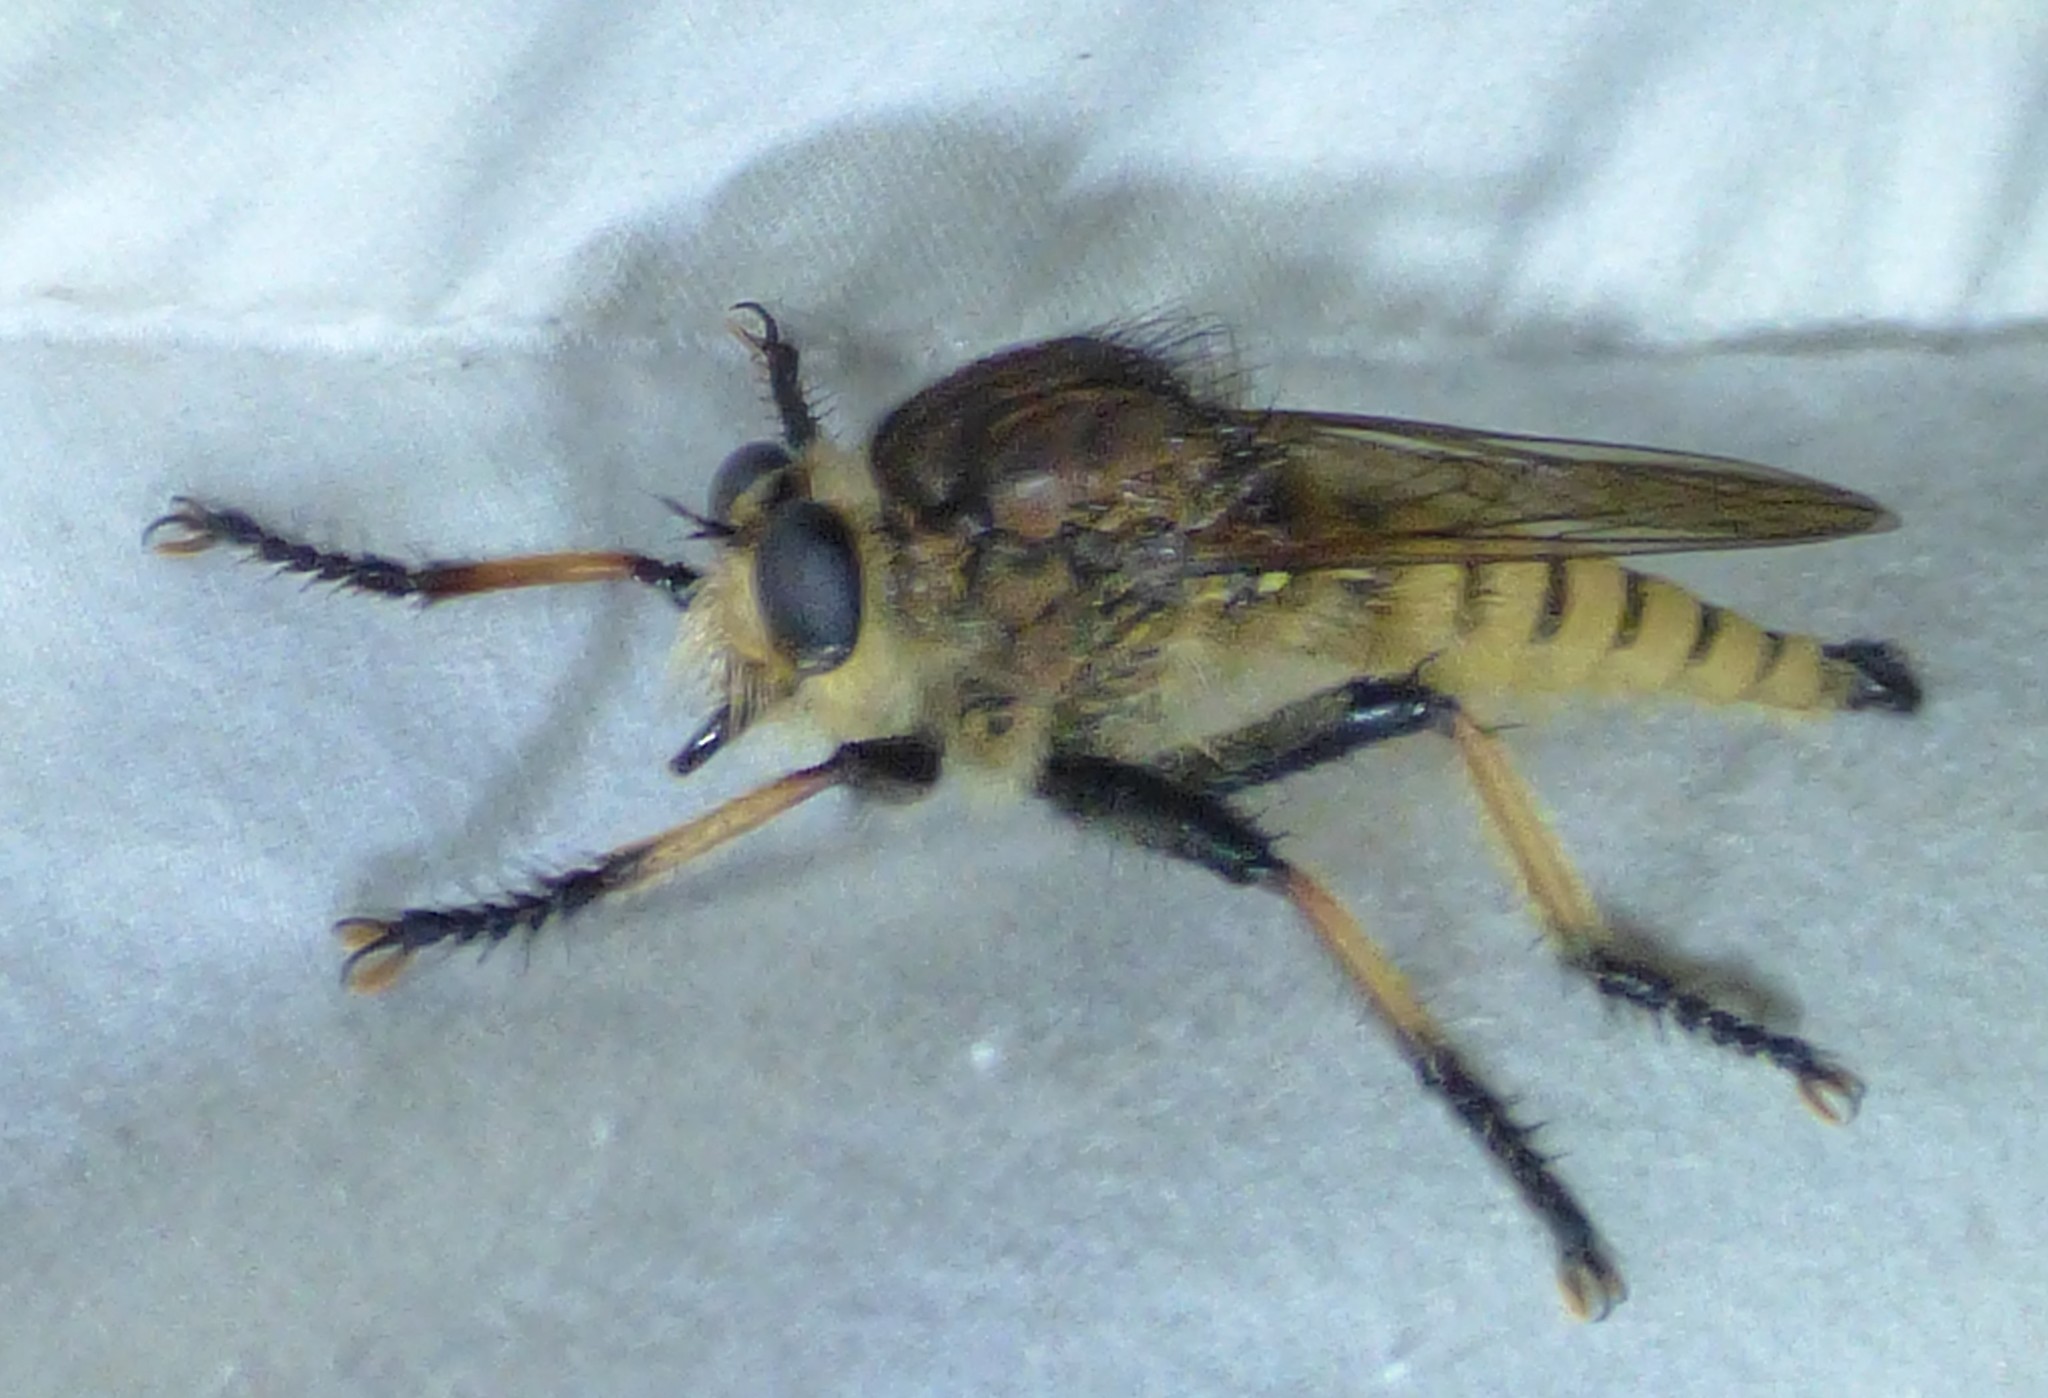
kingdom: Animalia
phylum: Arthropoda
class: Insecta
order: Diptera
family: Asilidae
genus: Promachus
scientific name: Promachus rufipes
